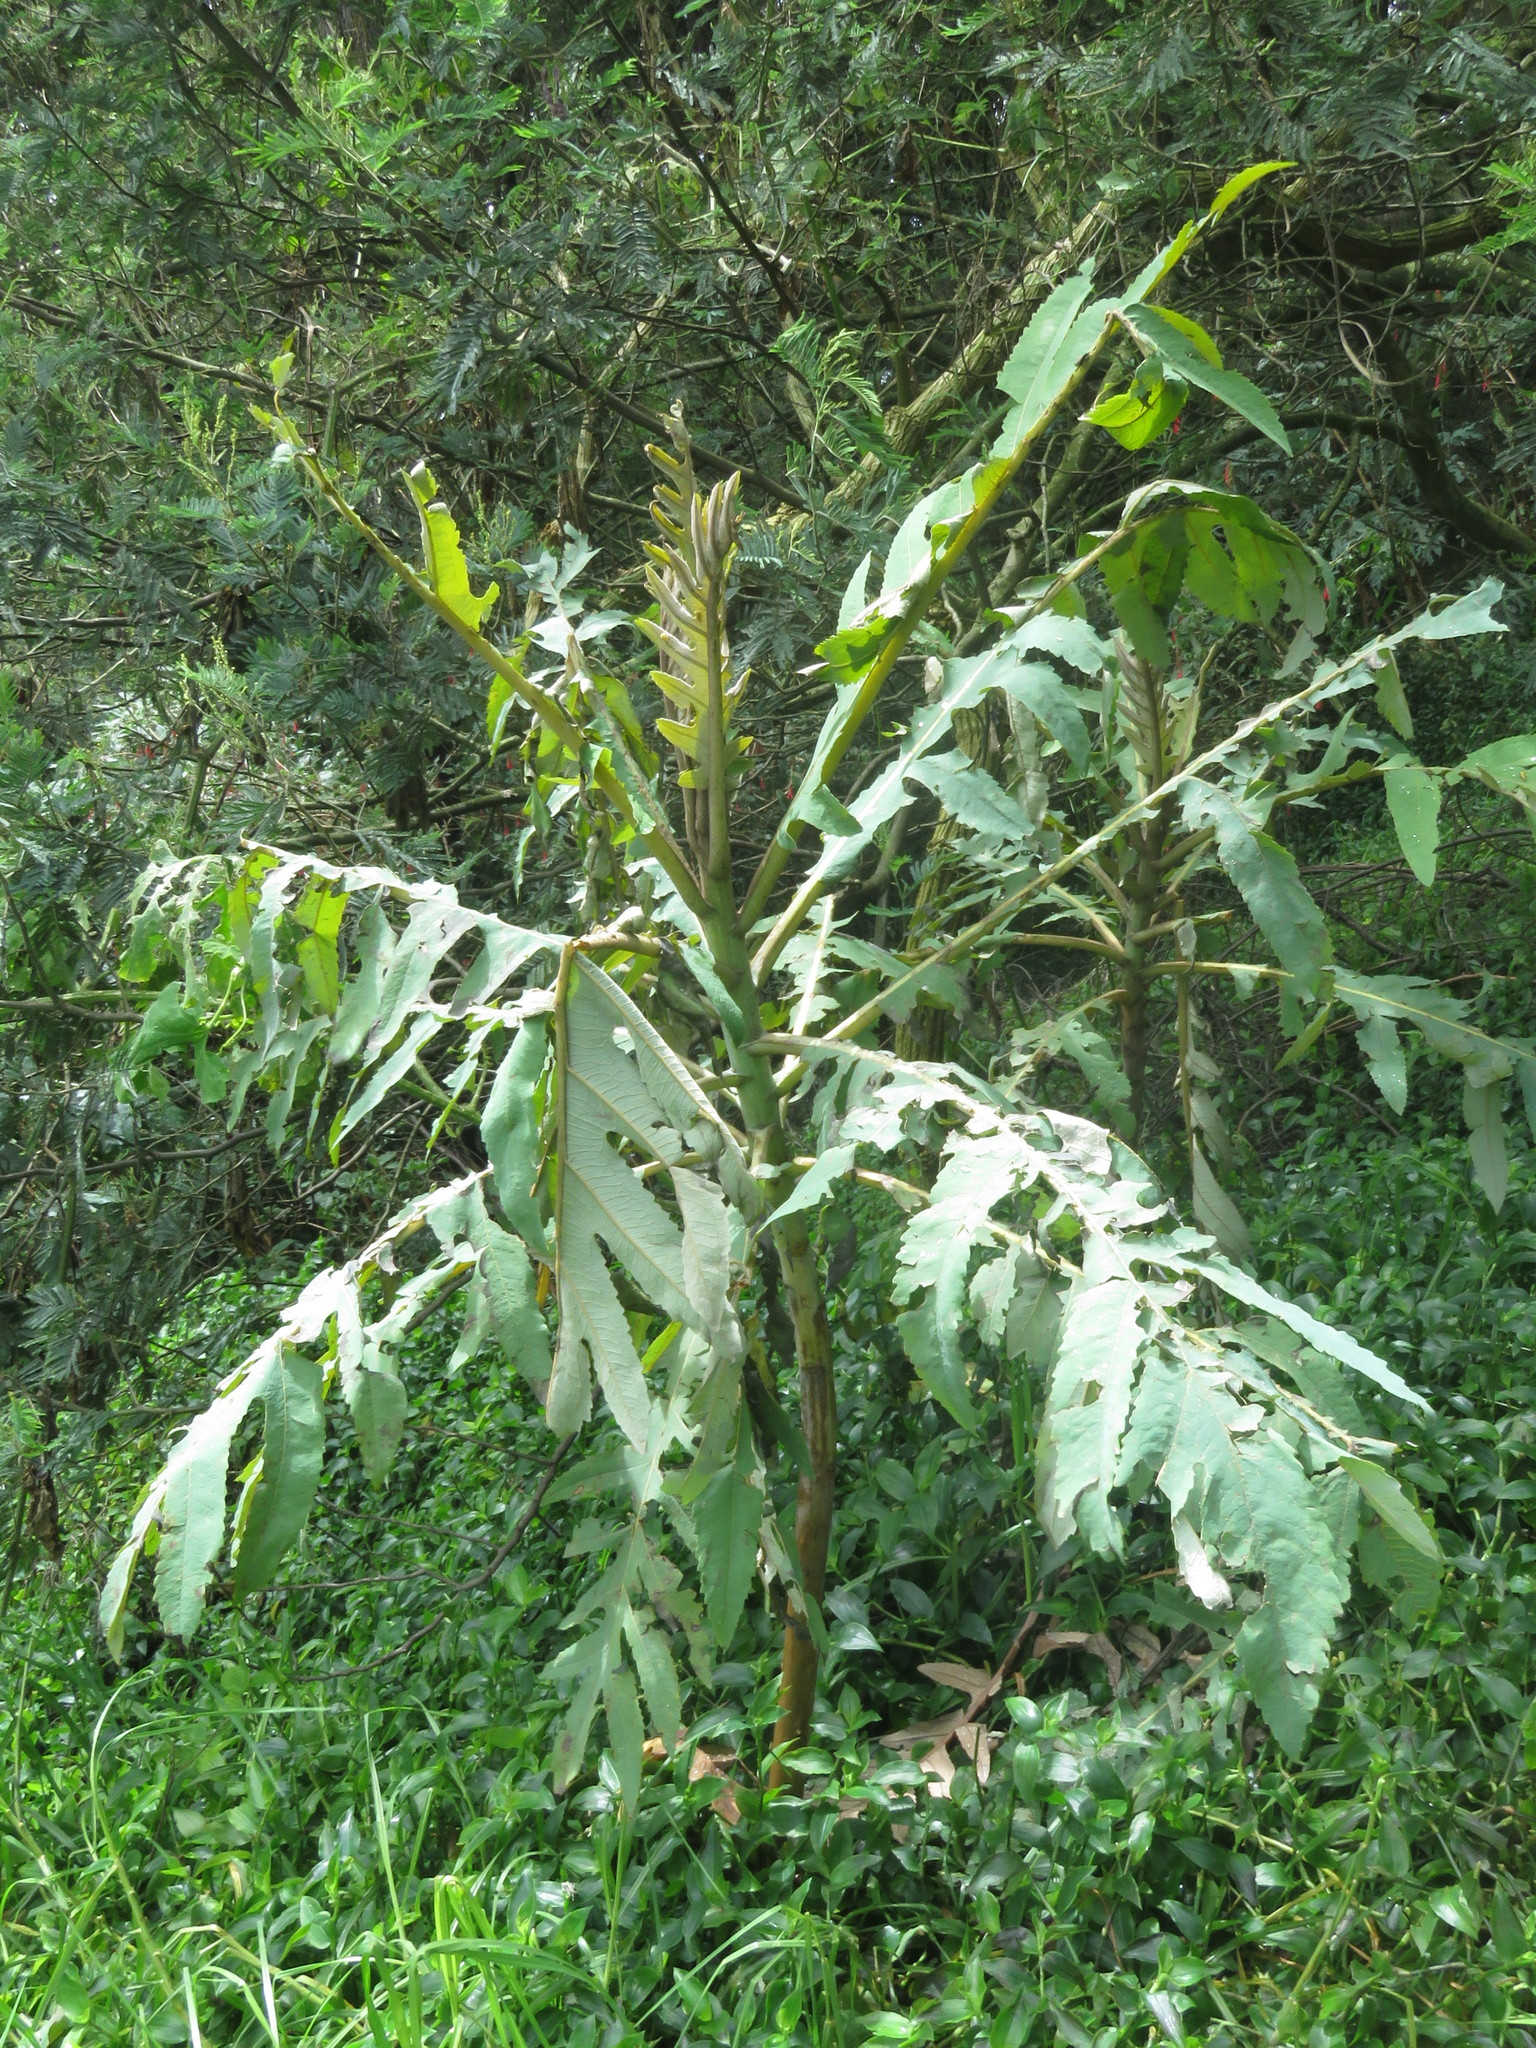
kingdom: Plantae
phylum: Tracheophyta
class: Magnoliopsida
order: Ranunculales
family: Papaveraceae
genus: Bocconia
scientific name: Bocconia frutescens
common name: Tree poppy
